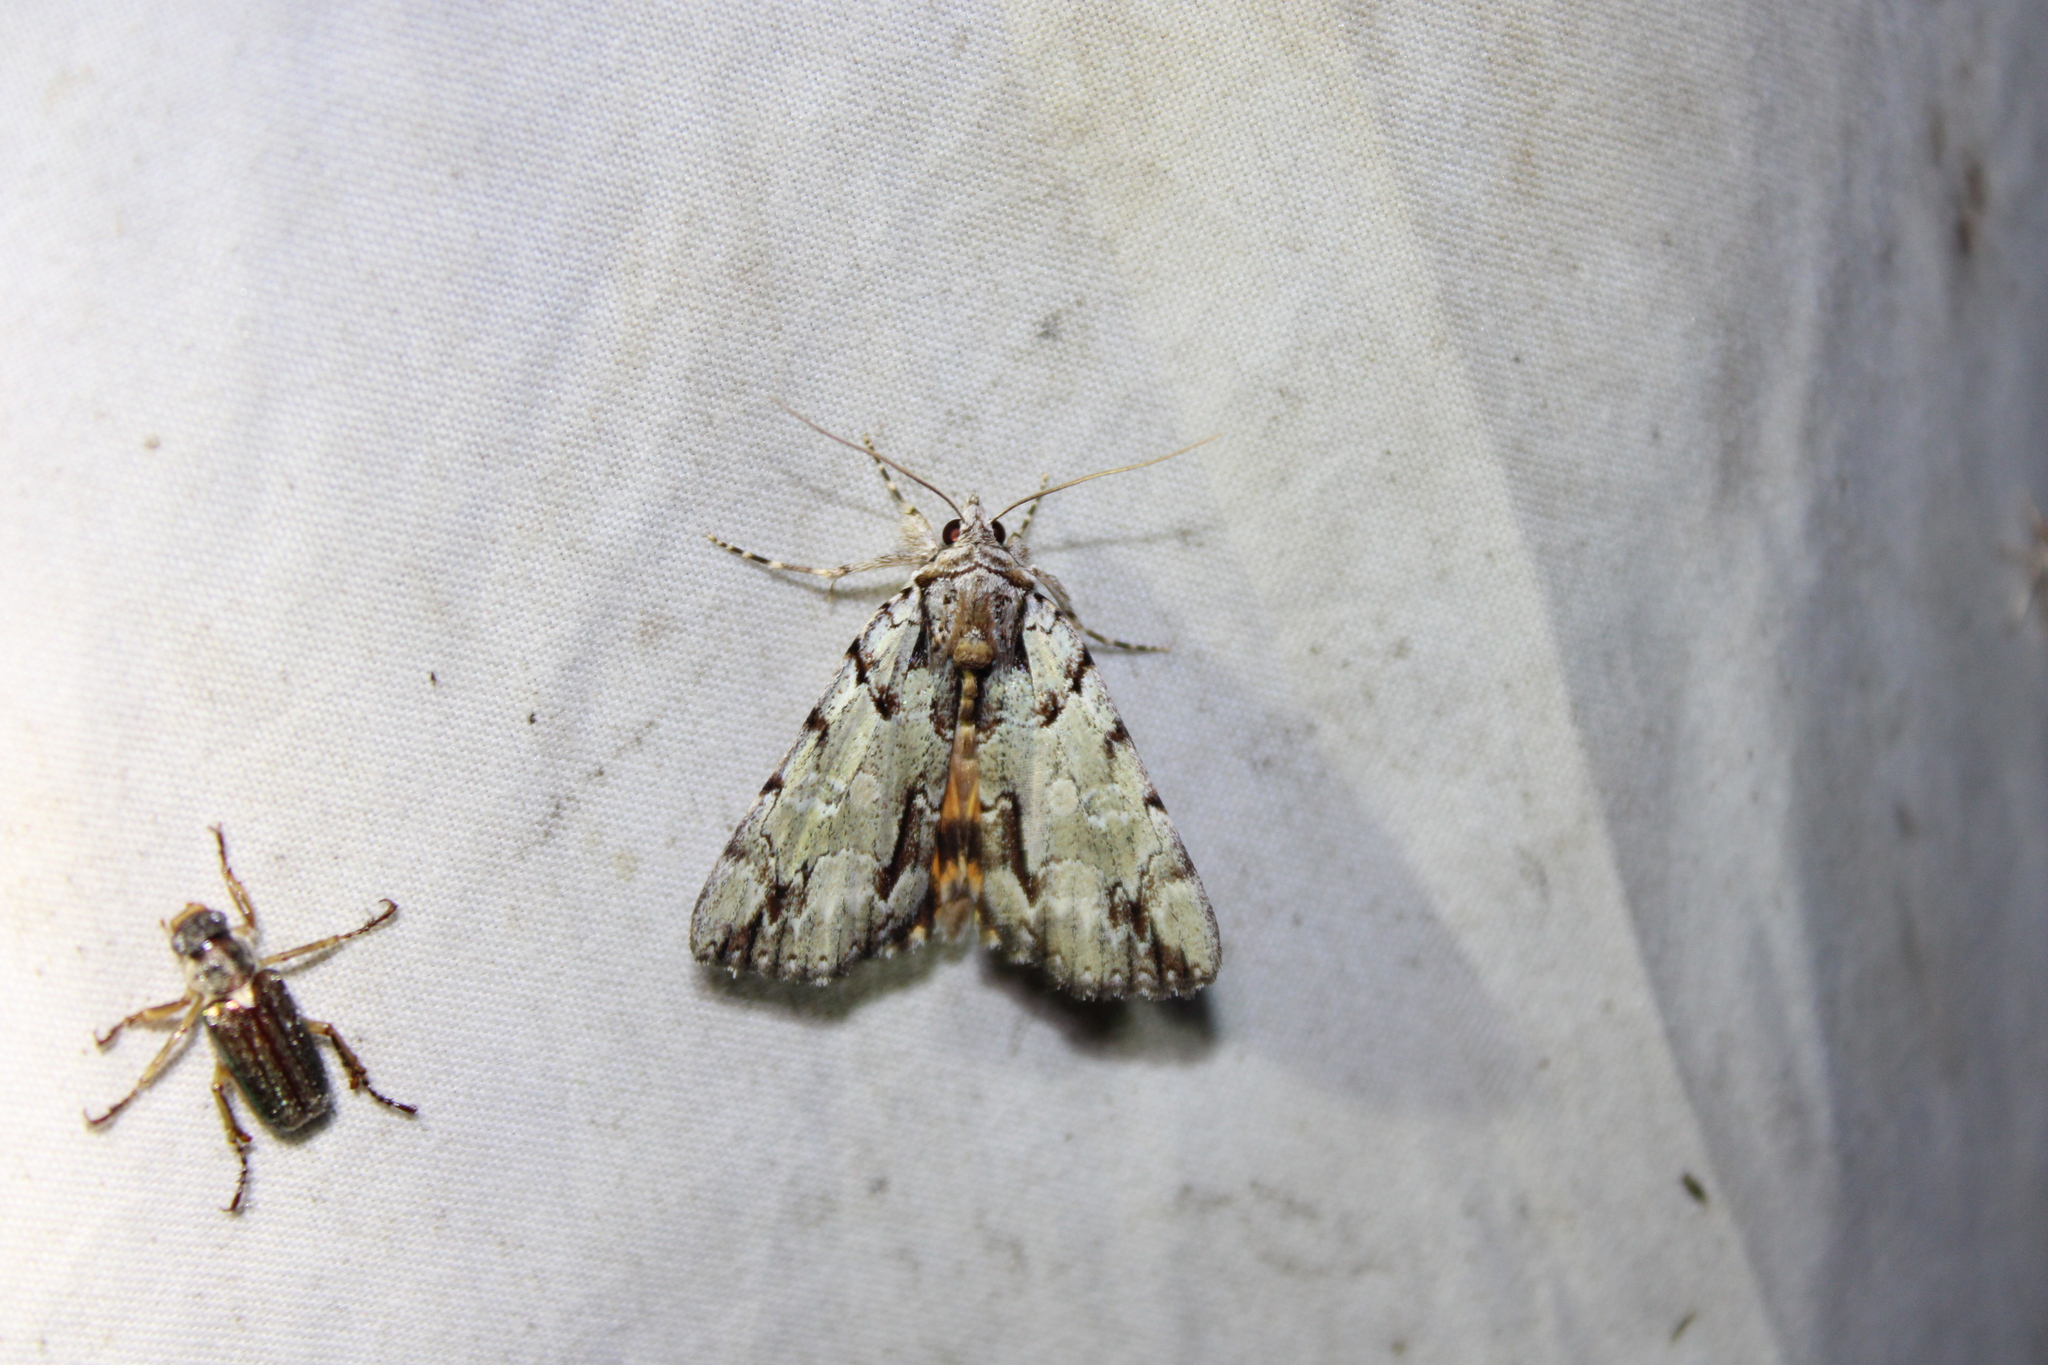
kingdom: Animalia
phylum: Arthropoda
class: Insecta
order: Lepidoptera
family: Erebidae
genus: Catocala
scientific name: Catocala praeclara
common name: Praeclara underwing
